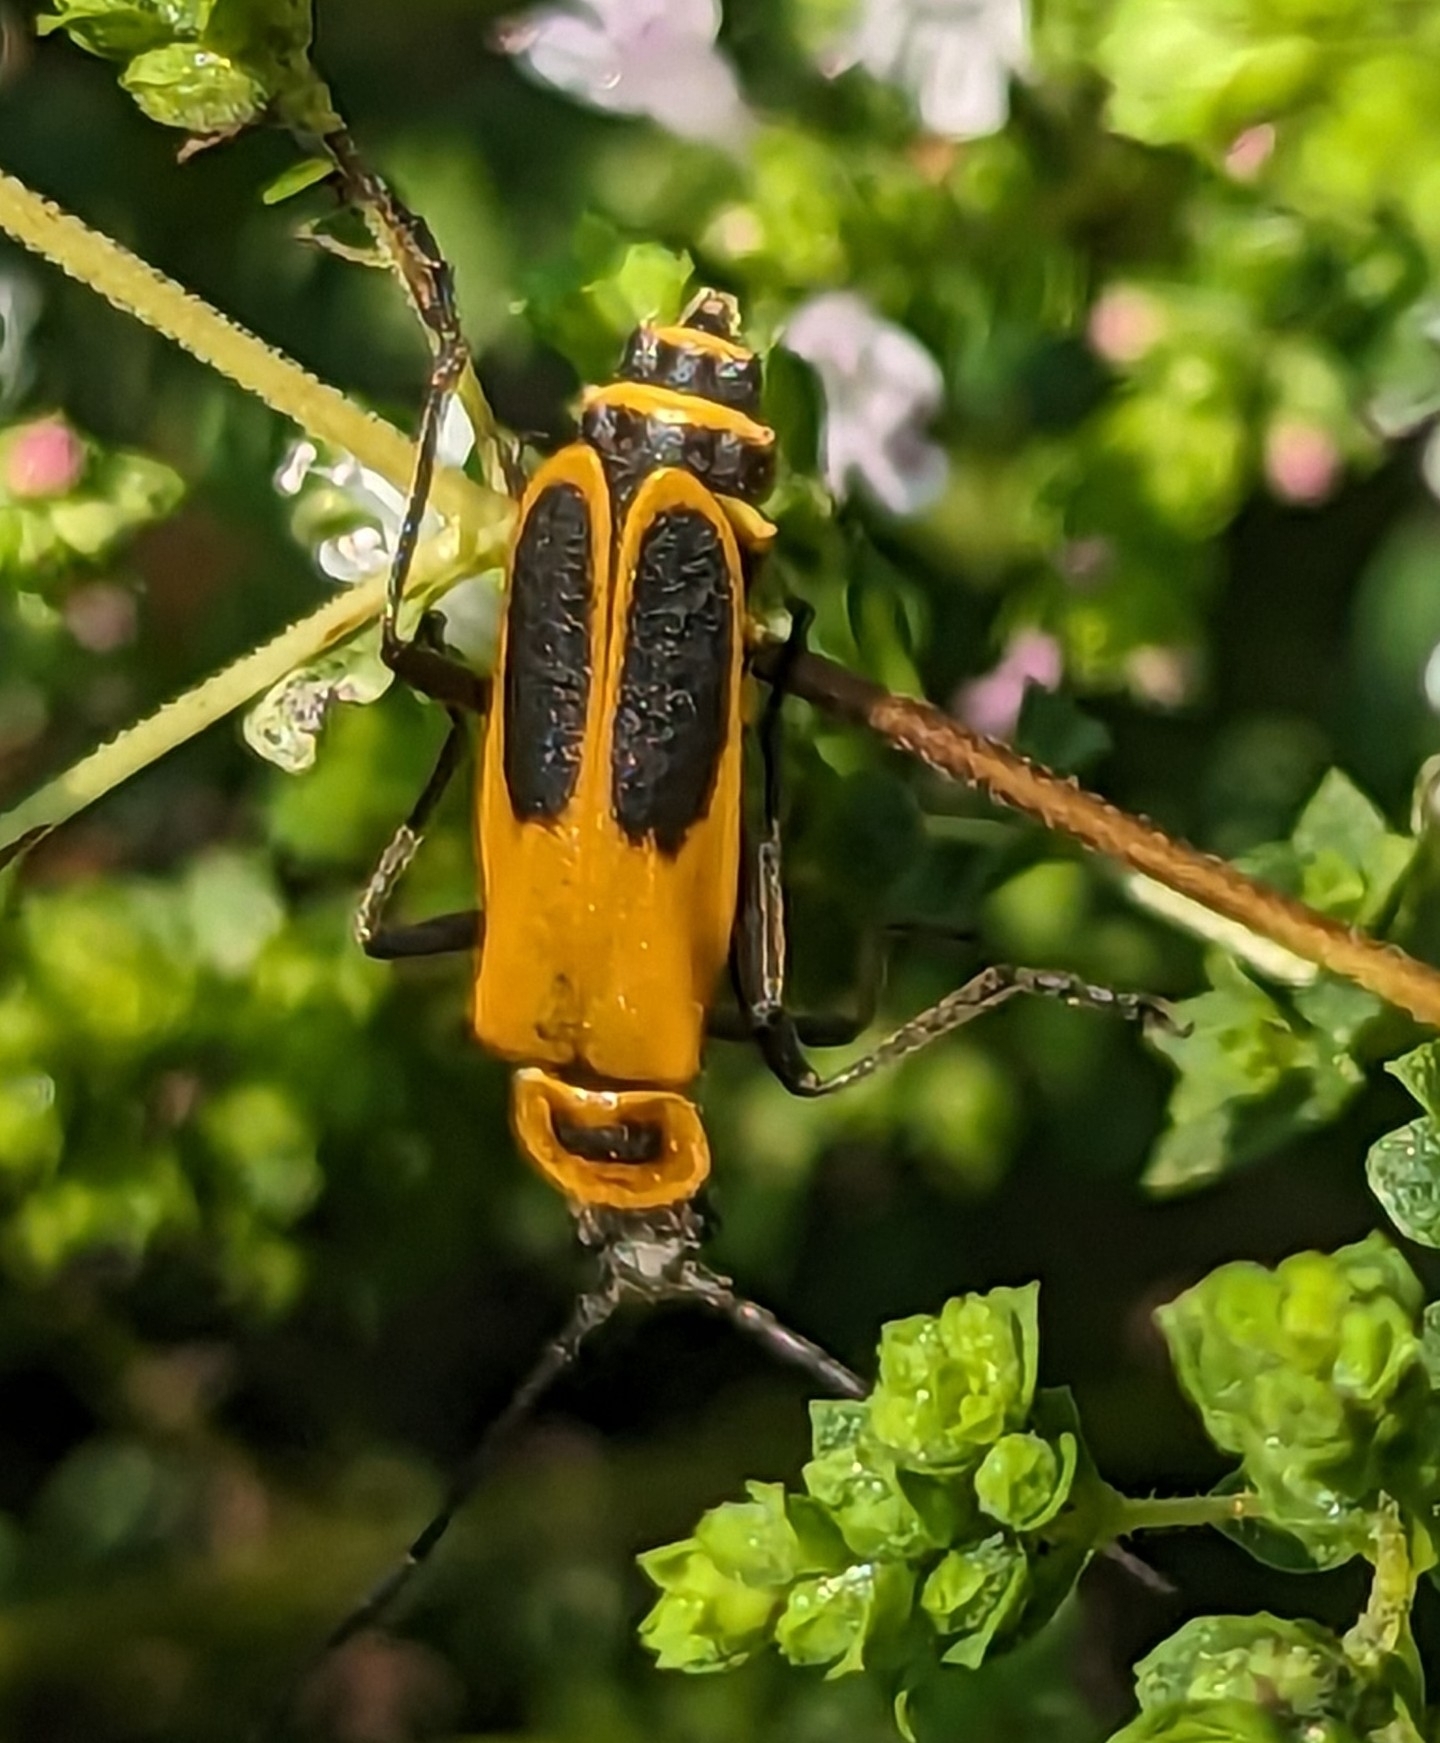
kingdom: Animalia
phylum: Arthropoda
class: Insecta
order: Coleoptera
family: Cantharidae
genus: Chauliognathus
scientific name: Chauliognathus pensylvanicus
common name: Goldenrod soldier beetle
